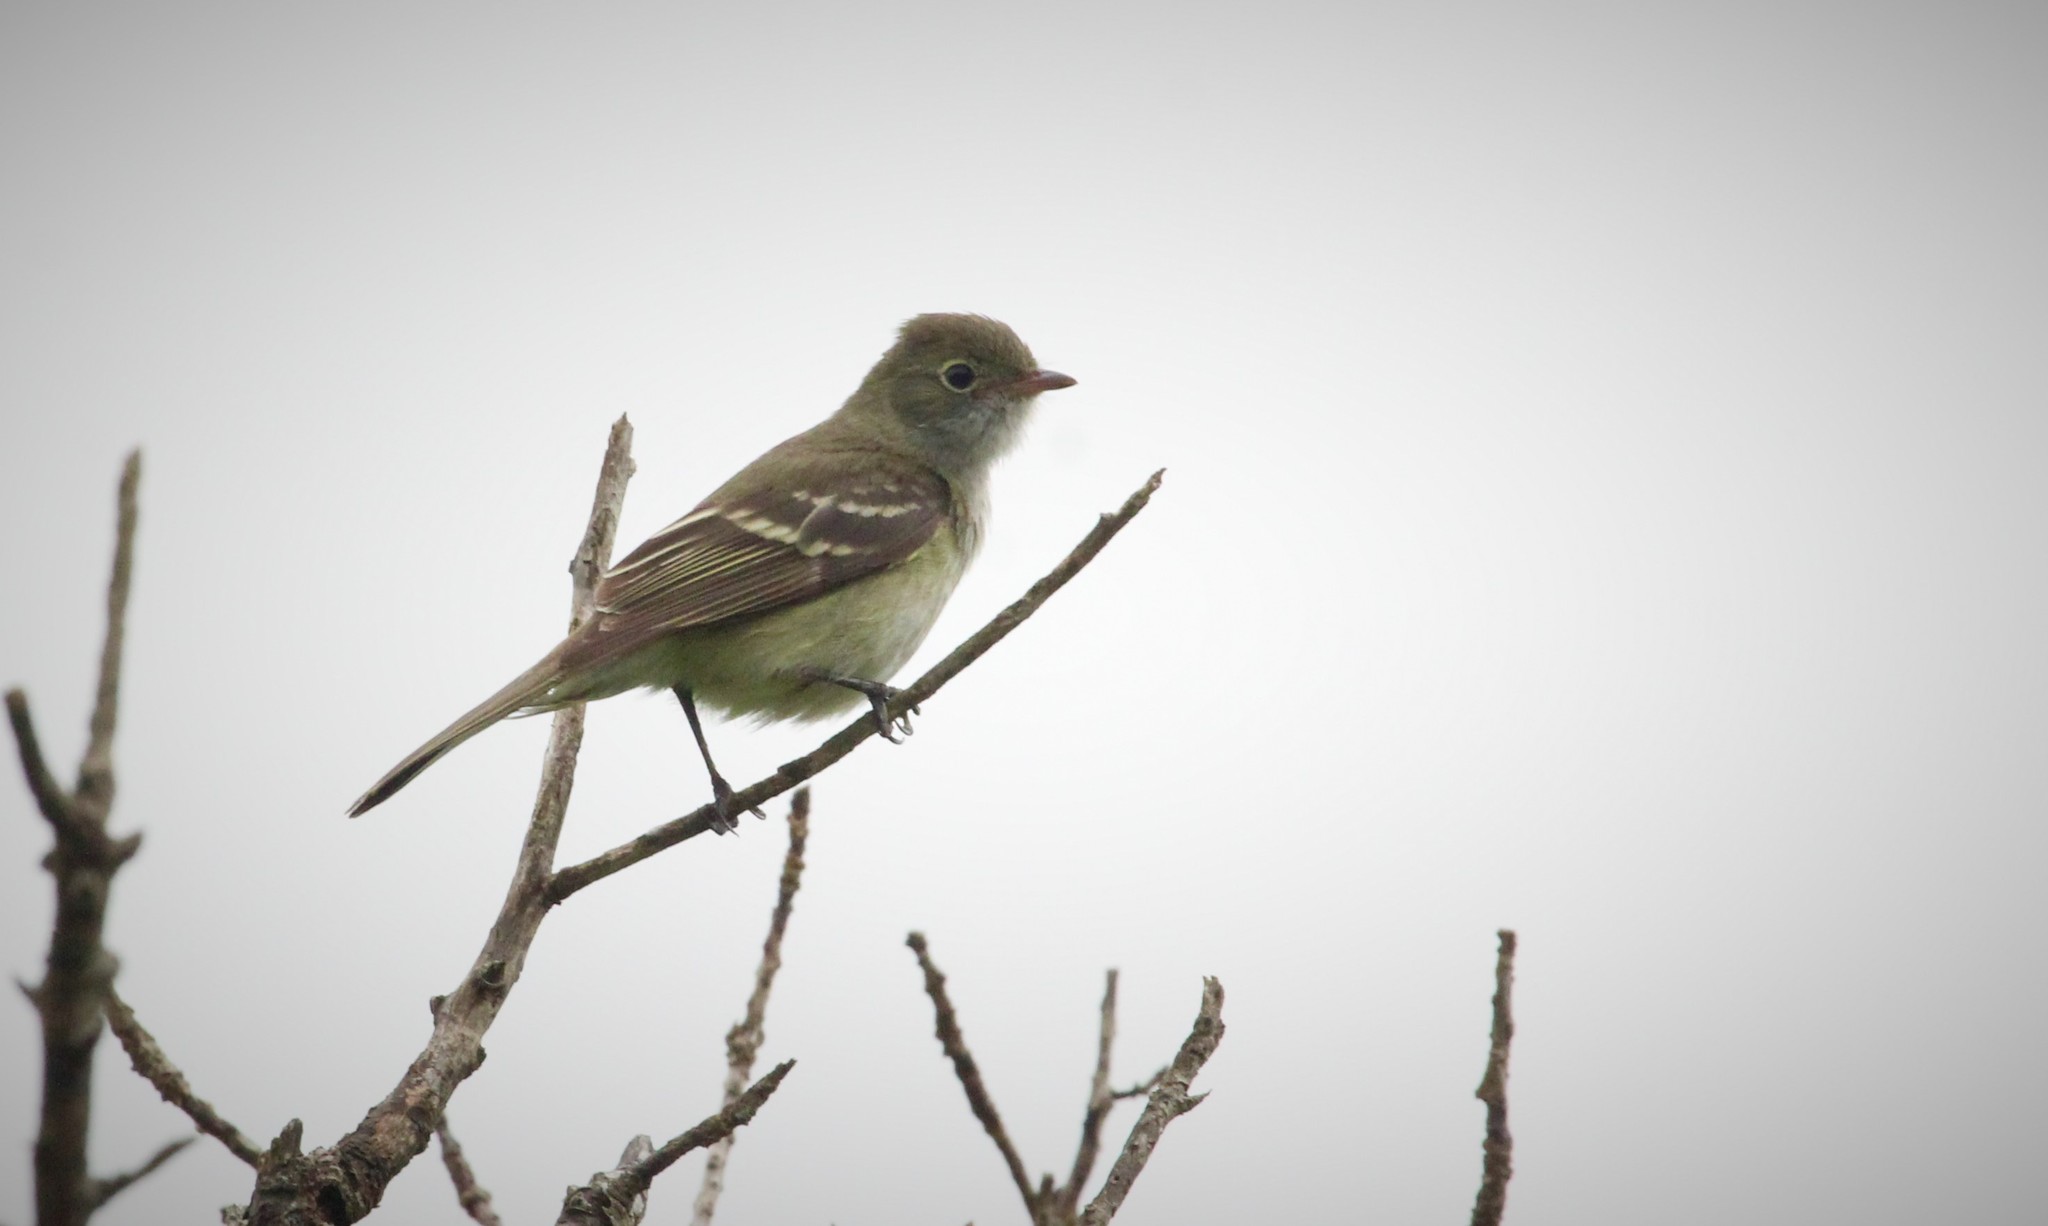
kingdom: Animalia
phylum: Chordata
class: Aves
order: Passeriformes
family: Tyrannidae
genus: Elaenia
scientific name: Elaenia parvirostris
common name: Small-billed elaenia
